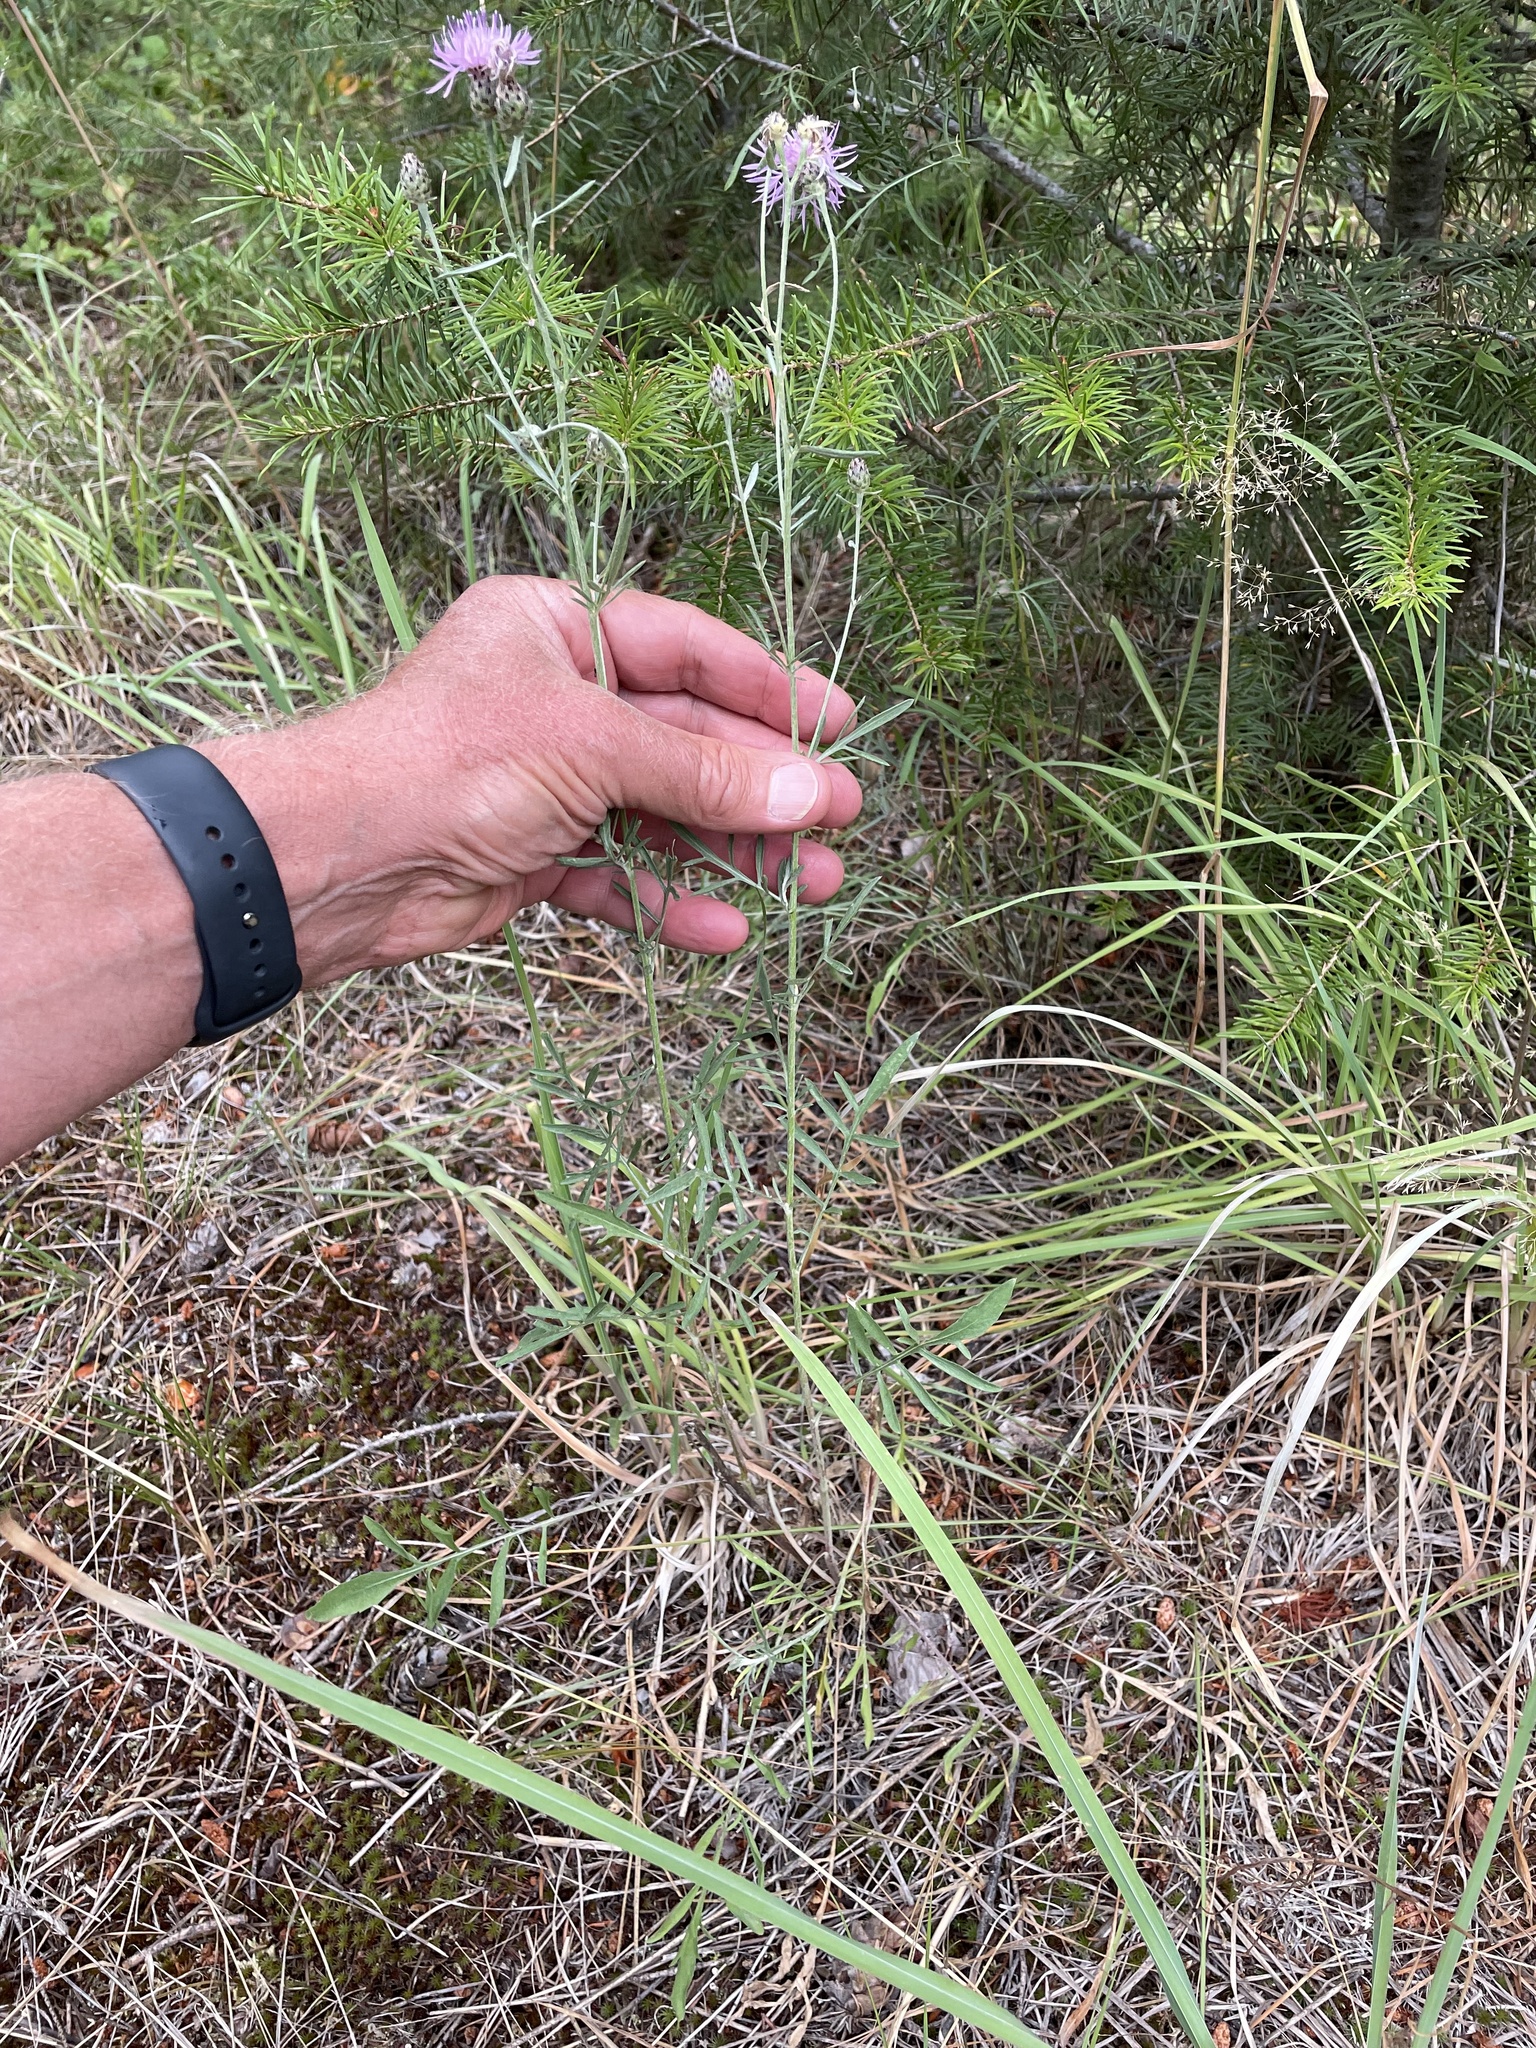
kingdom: Plantae
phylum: Tracheophyta
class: Magnoliopsida
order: Asterales
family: Asteraceae
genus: Centaurea
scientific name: Centaurea stoebe
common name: Spotted knapweed
